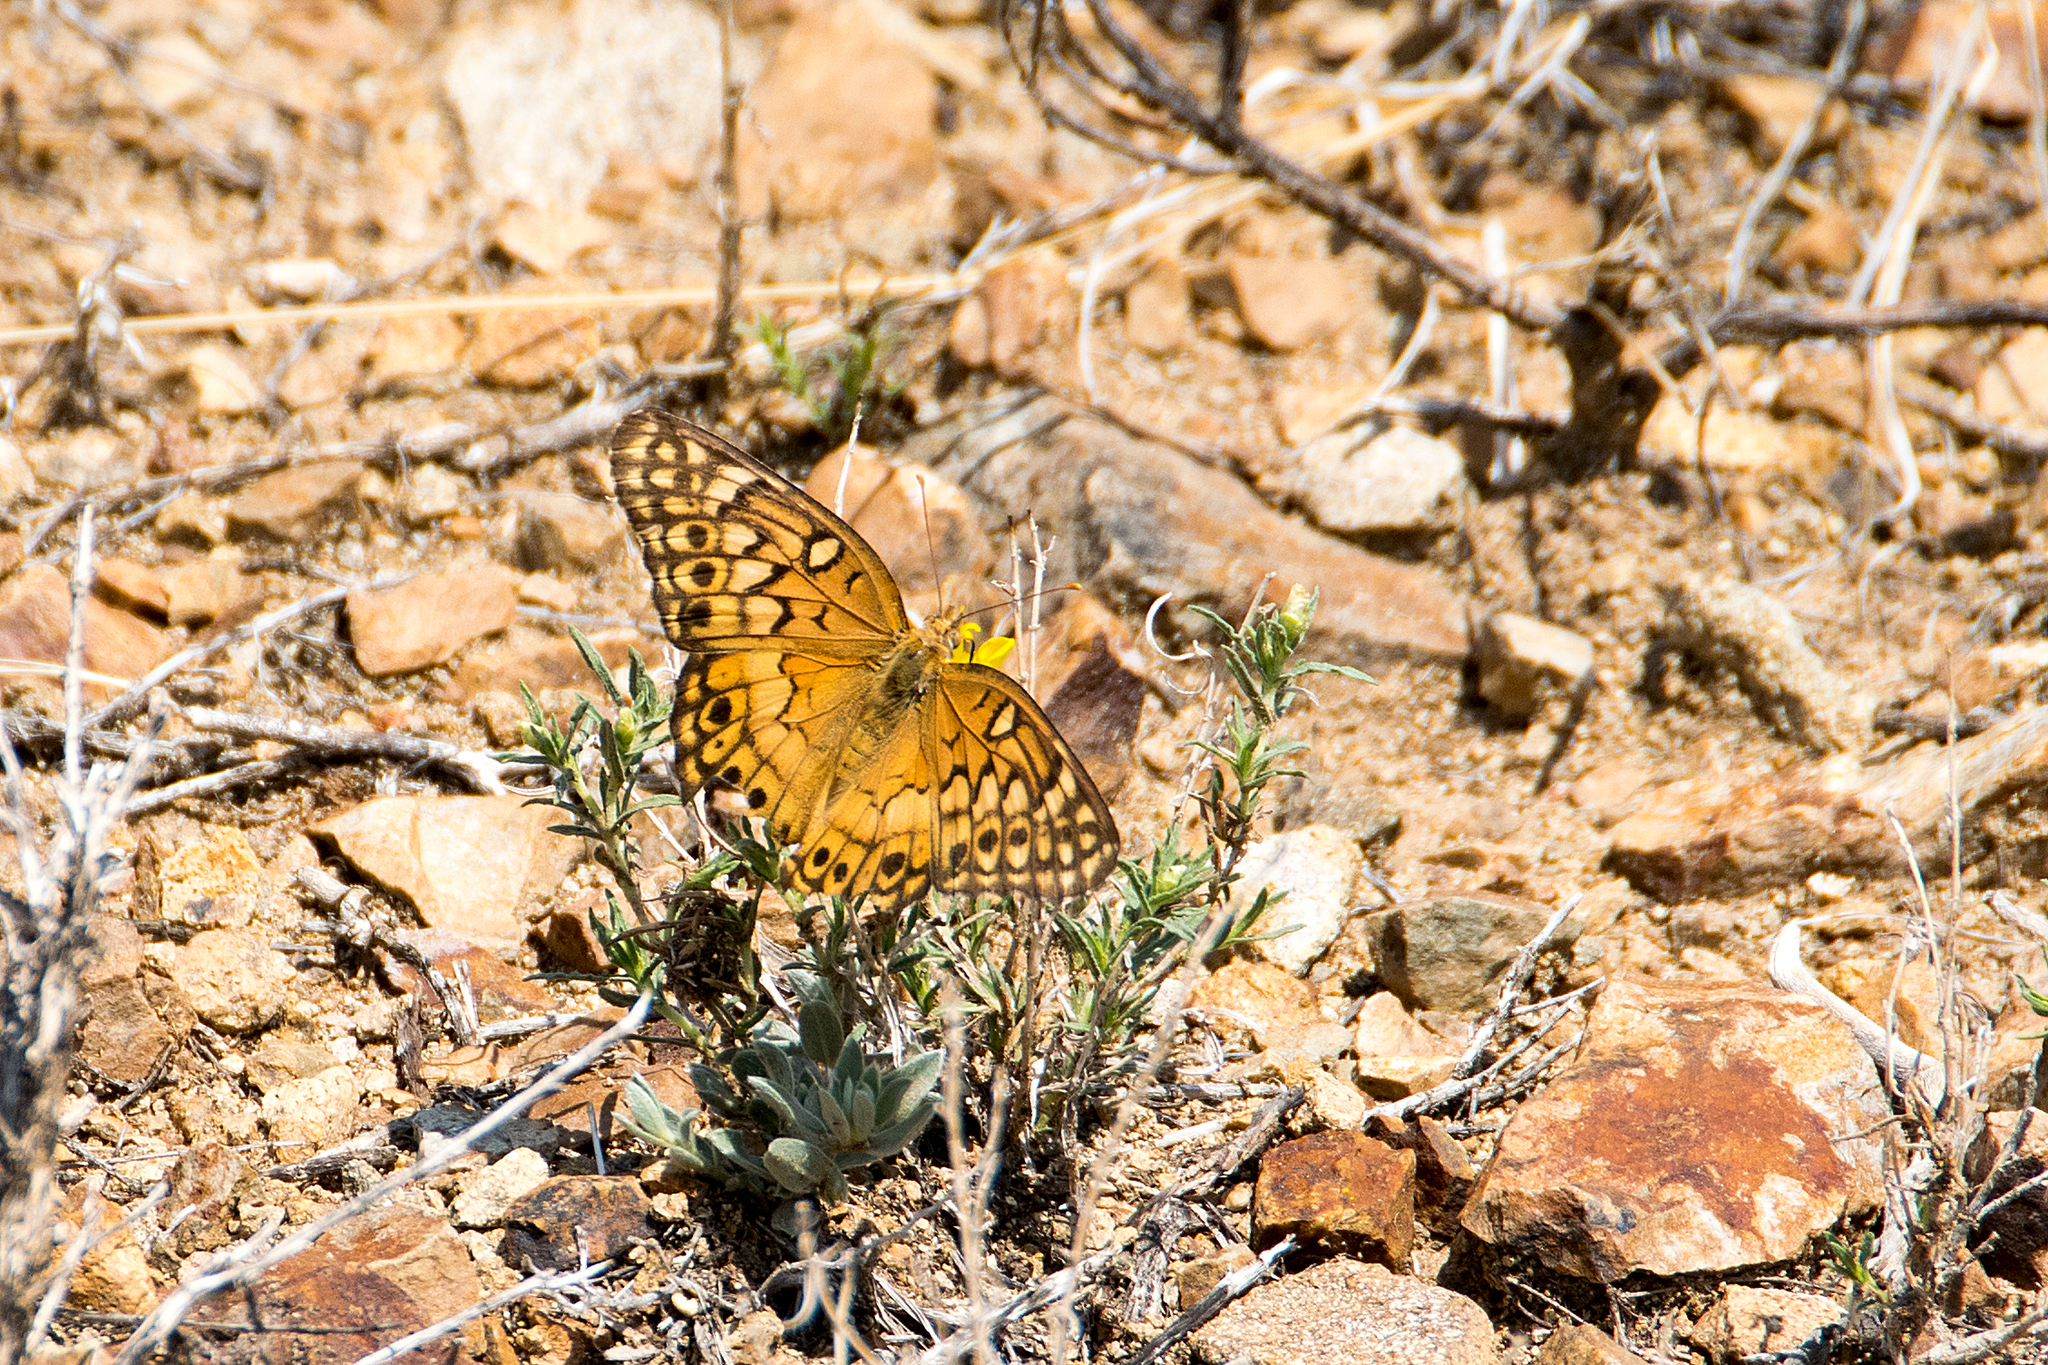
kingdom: Animalia
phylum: Arthropoda
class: Insecta
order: Lepidoptera
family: Nymphalidae
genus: Euptoieta
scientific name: Euptoieta claudia
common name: Variegated fritillary
